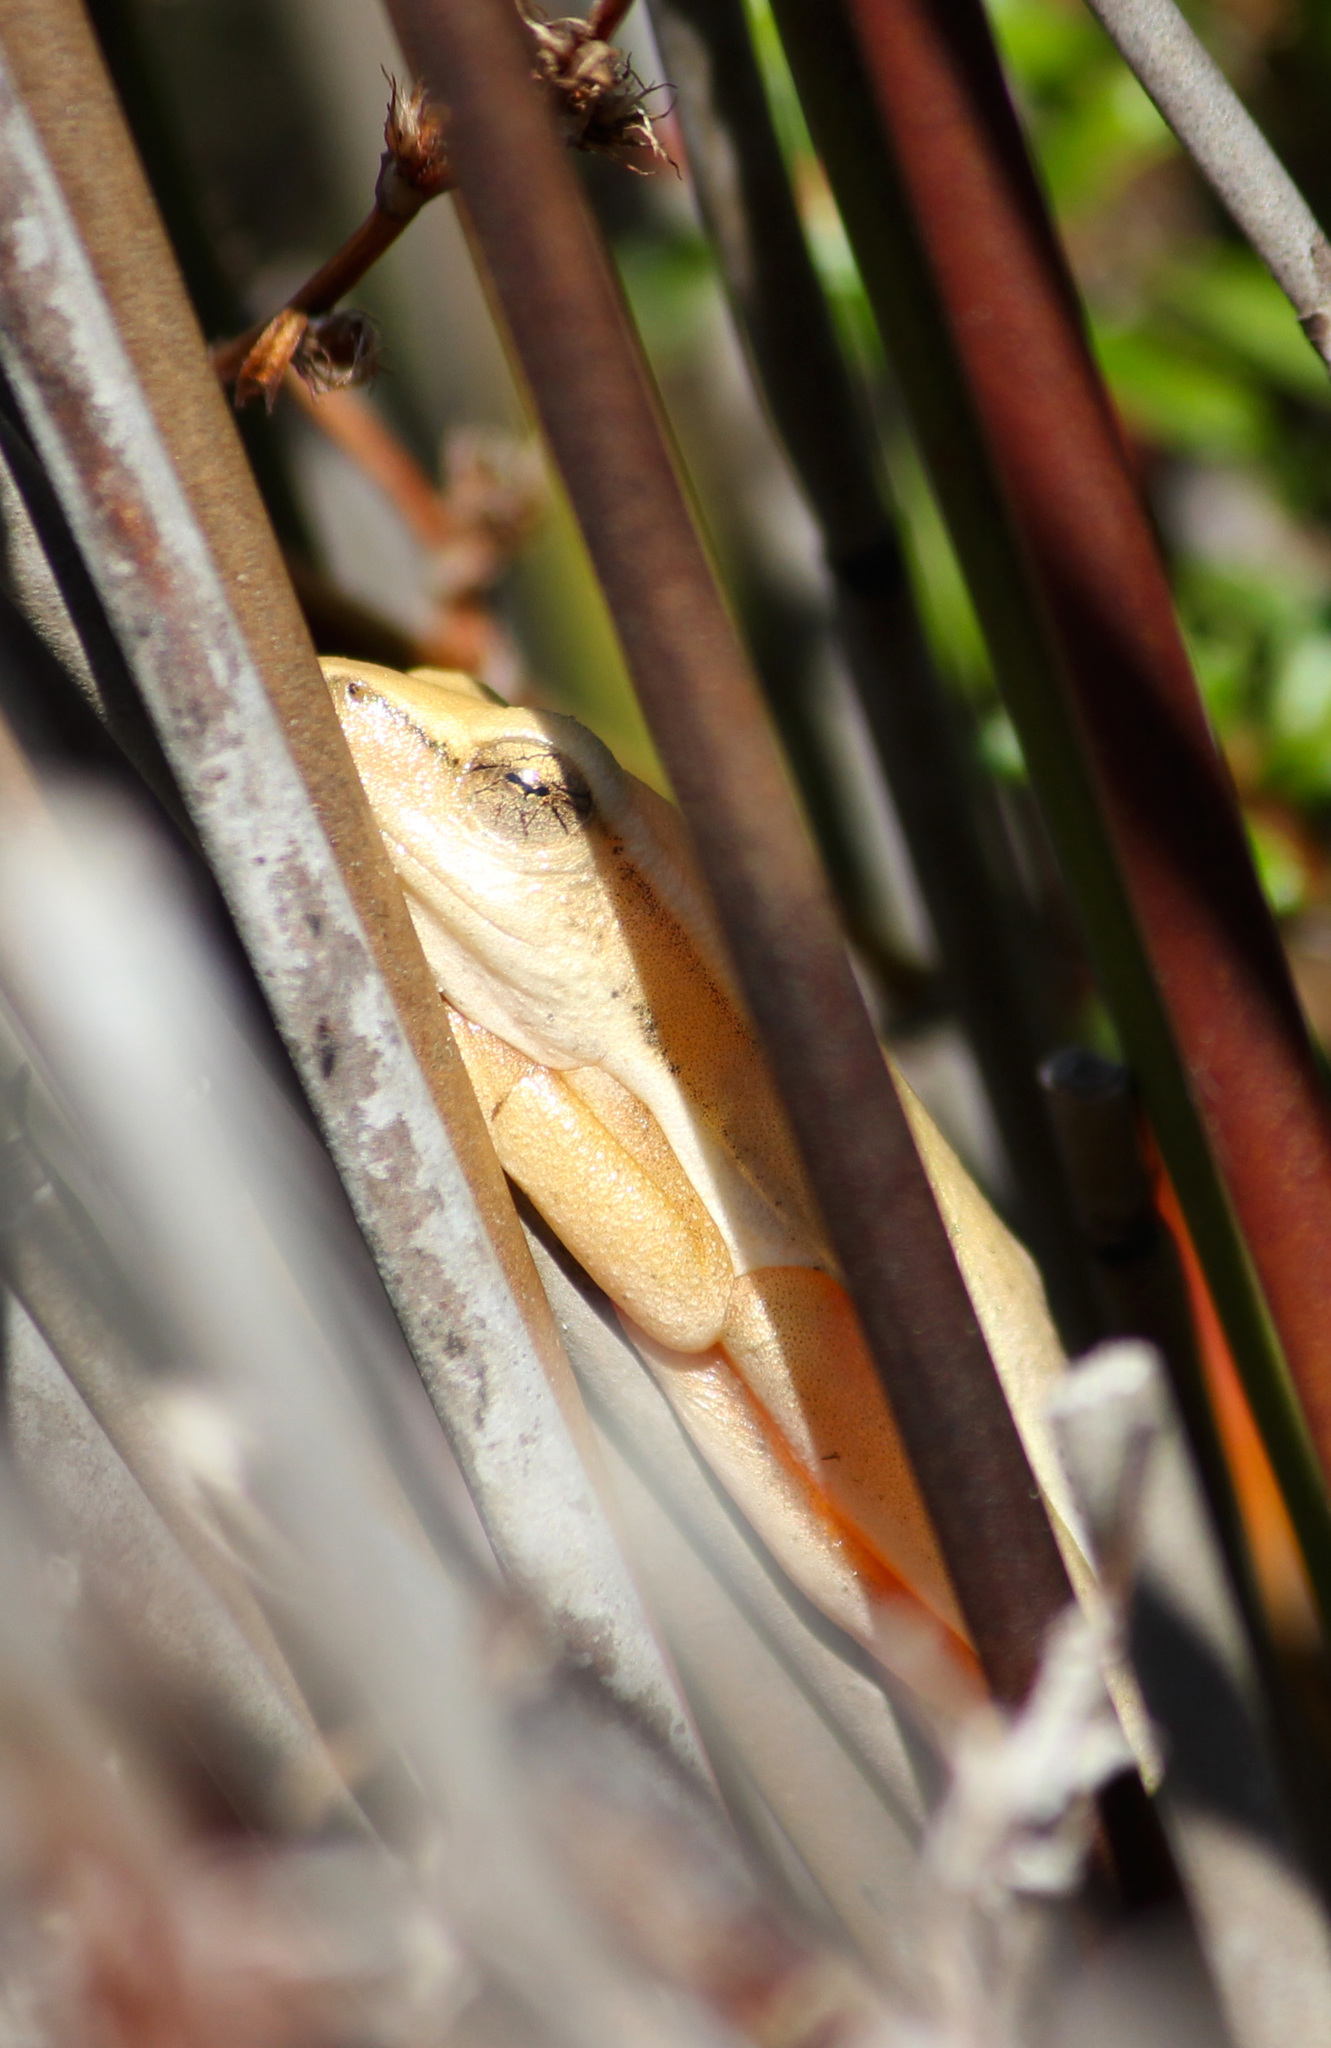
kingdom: Animalia
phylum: Chordata
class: Amphibia
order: Anura
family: Hyperoliidae
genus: Hyperolius
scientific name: Hyperolius horstockii
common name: Arum lily frog
